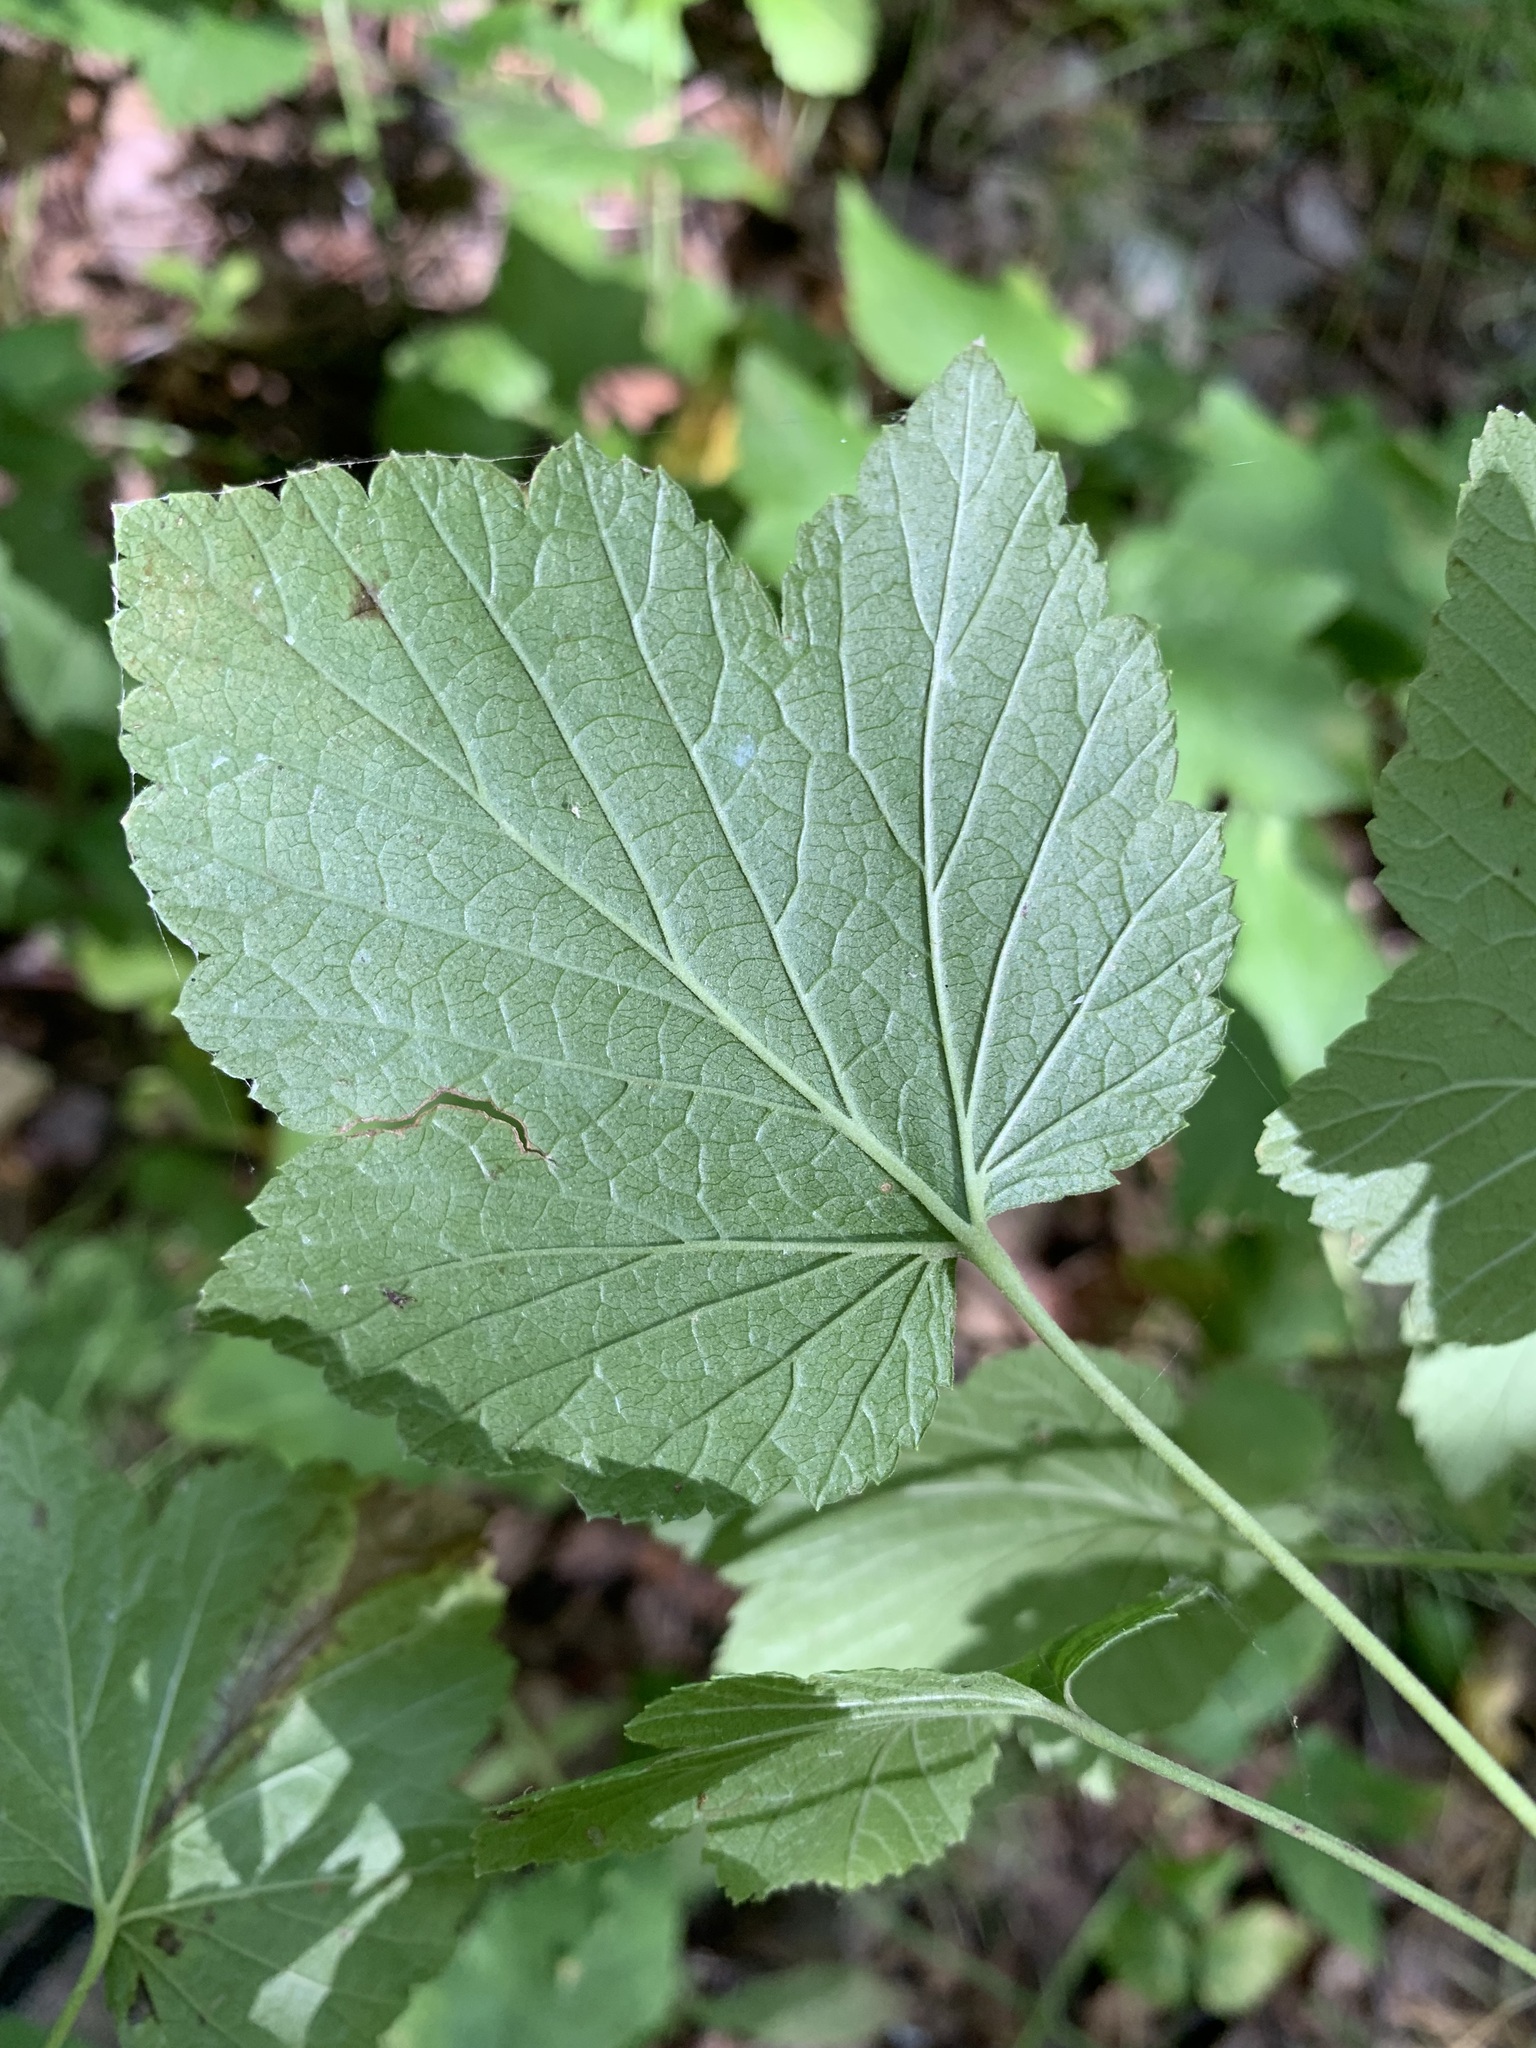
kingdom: Plantae
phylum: Tracheophyta
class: Magnoliopsida
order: Saxifragales
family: Grossulariaceae
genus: Ribes
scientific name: Ribes nigrum
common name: Black currant
